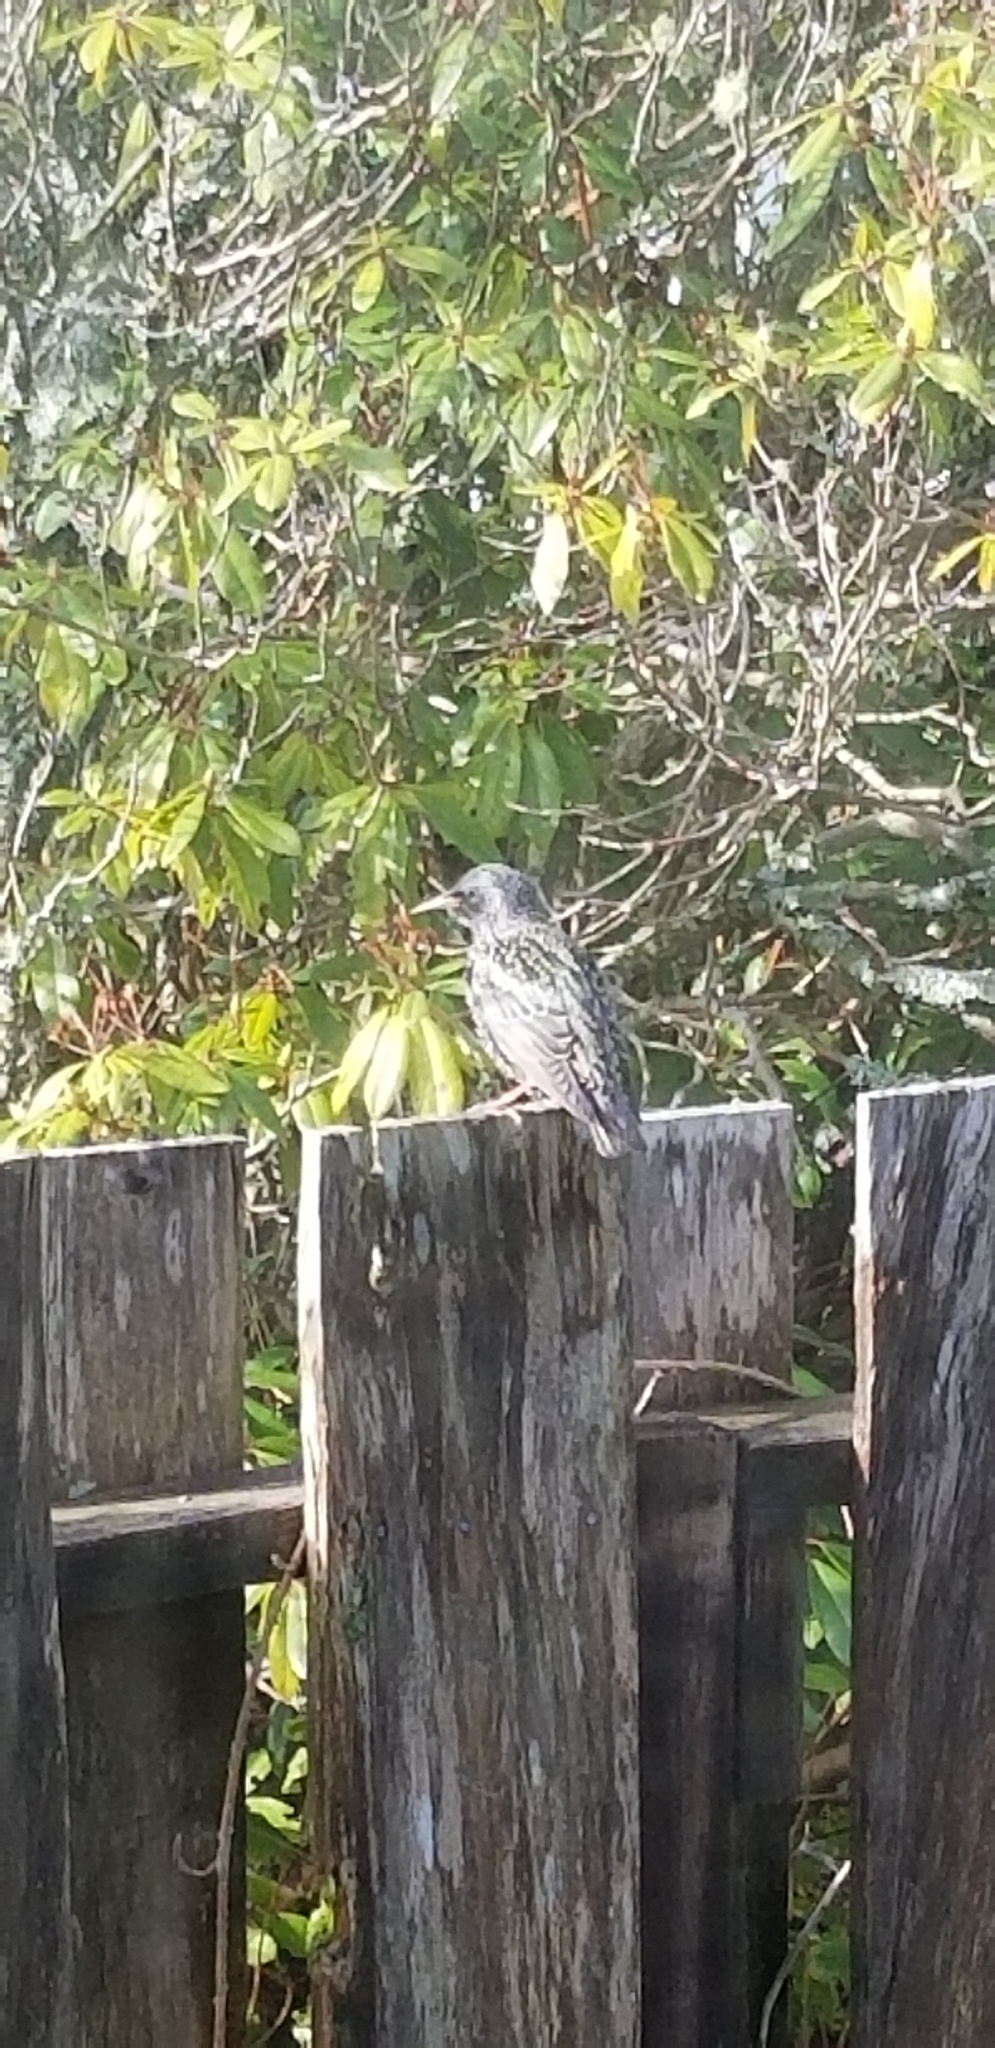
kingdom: Animalia
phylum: Chordata
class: Aves
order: Passeriformes
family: Sturnidae
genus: Sturnus
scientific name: Sturnus vulgaris
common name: Common starling
